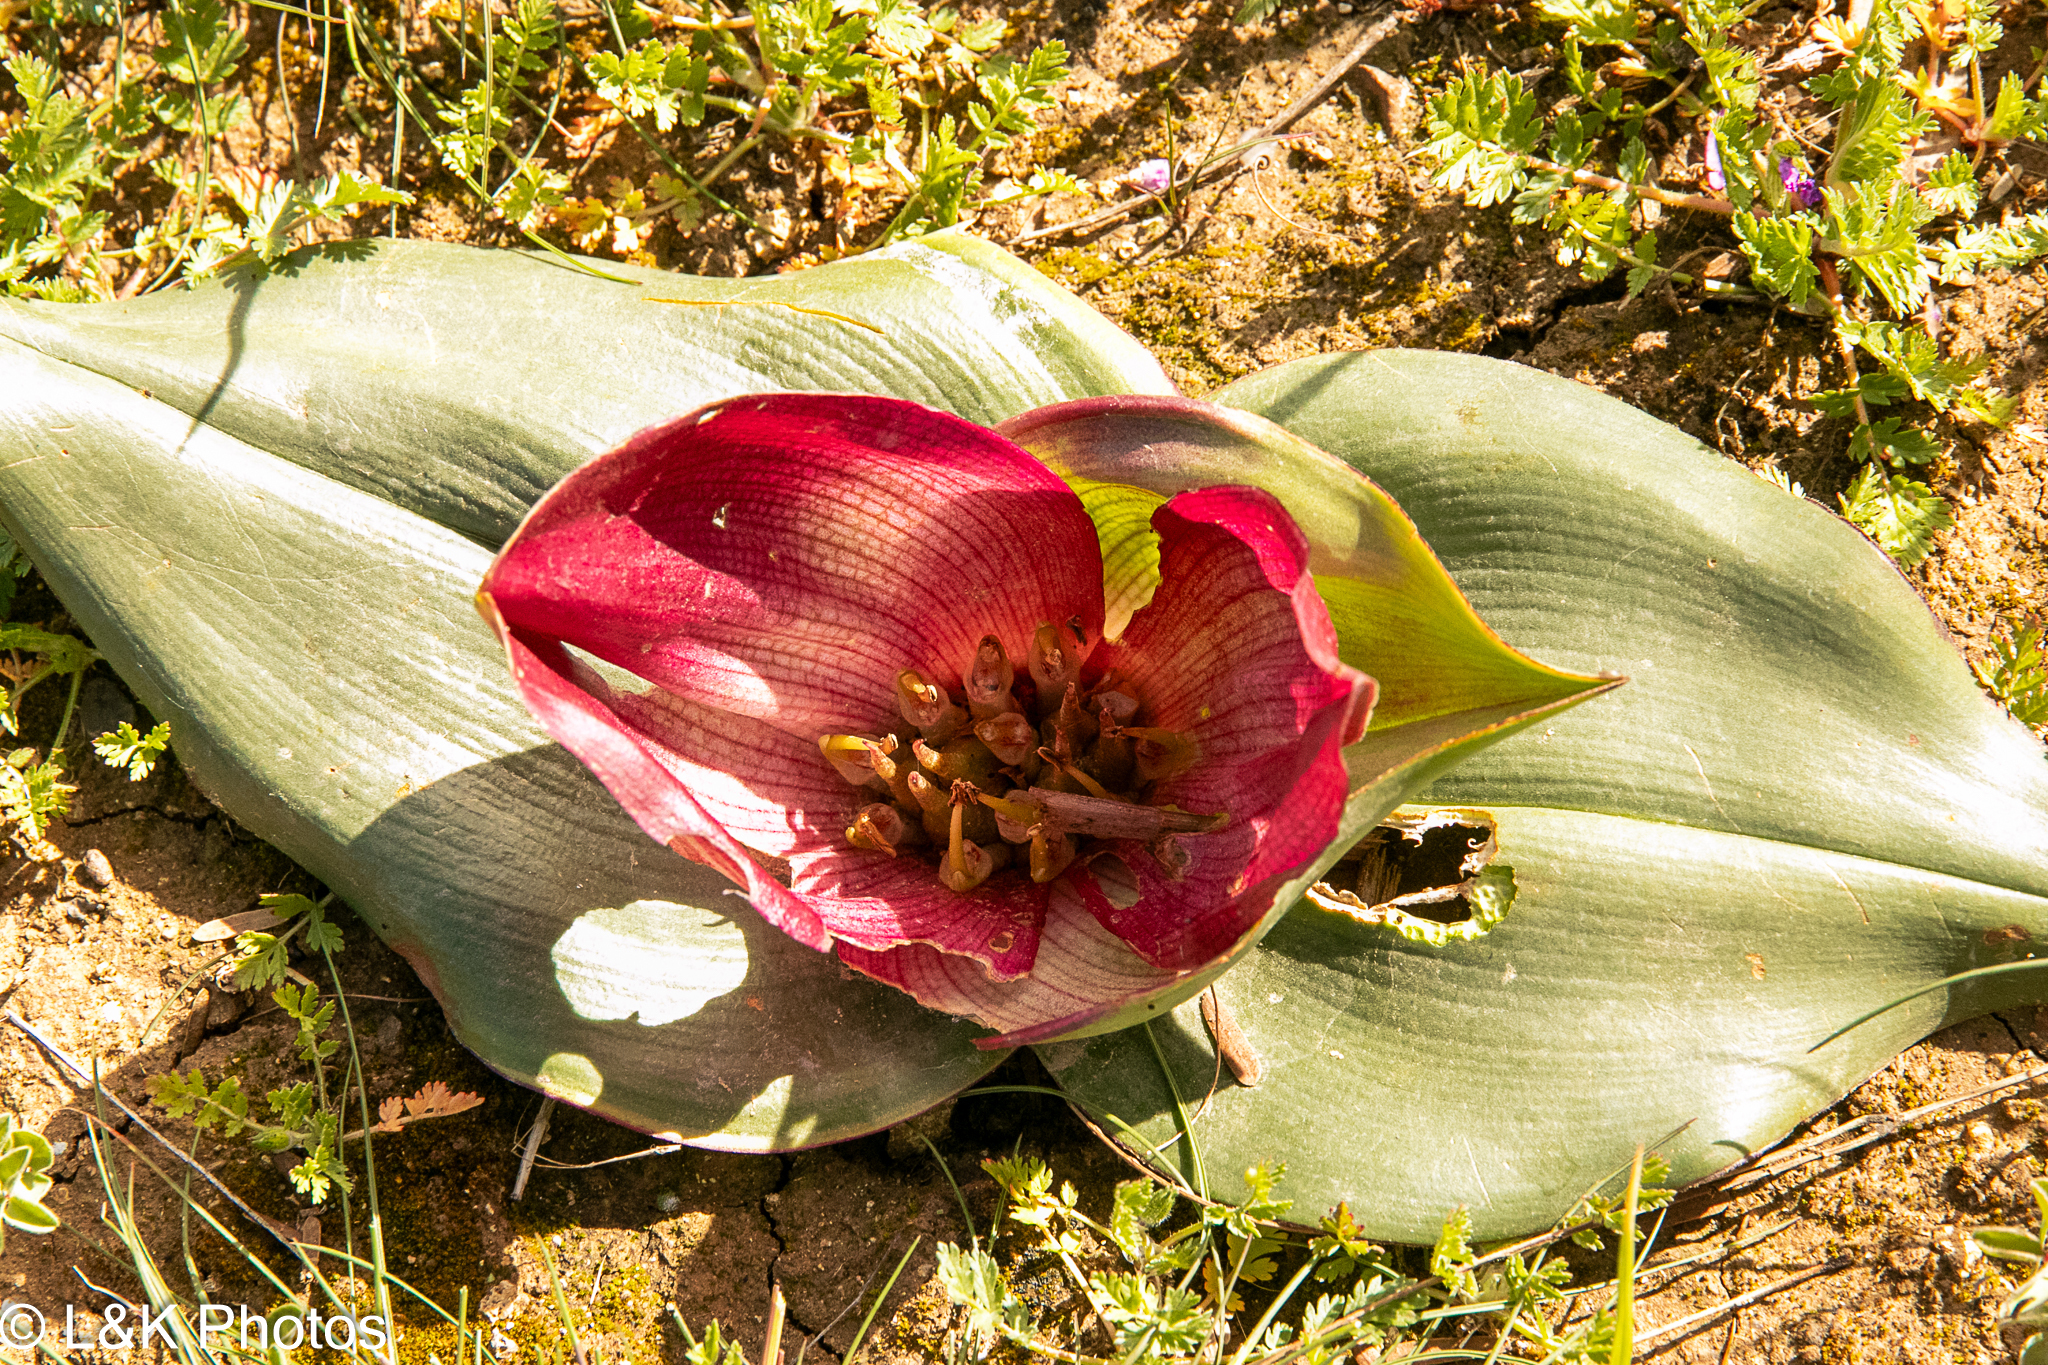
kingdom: Plantae
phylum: Tracheophyta
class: Liliopsida
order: Liliales
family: Colchicaceae
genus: Colchicum
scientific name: Colchicum burchellii
